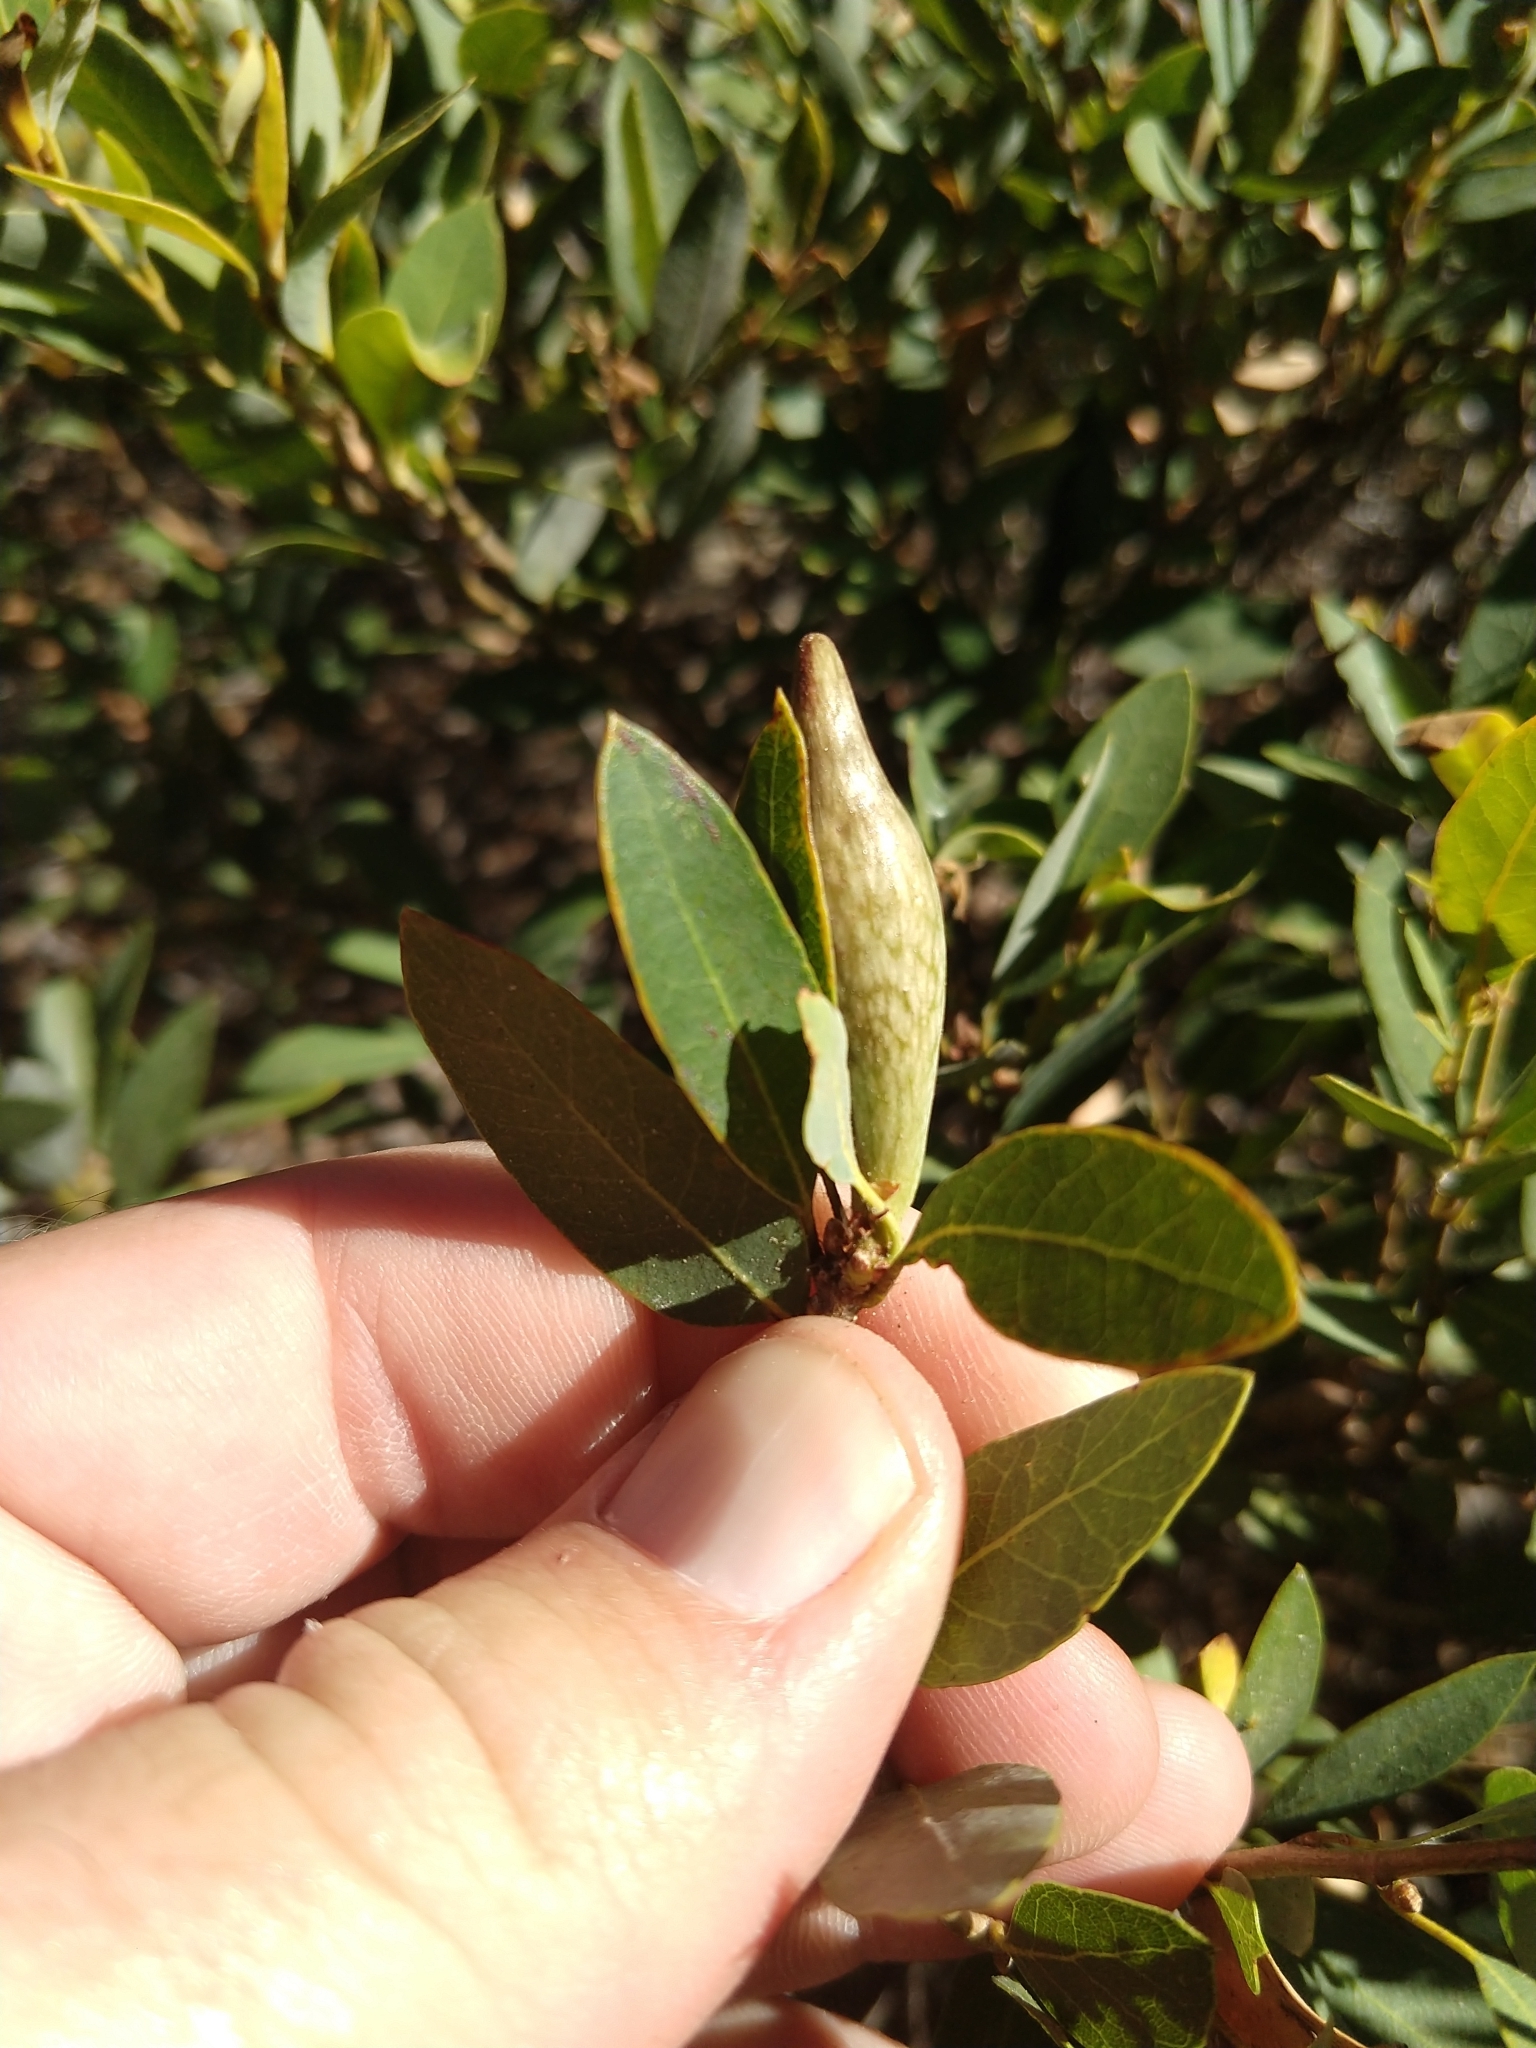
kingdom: Animalia
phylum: Arthropoda
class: Insecta
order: Hymenoptera
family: Cynipidae
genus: Heteroecus
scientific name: Heteroecus pacificus
